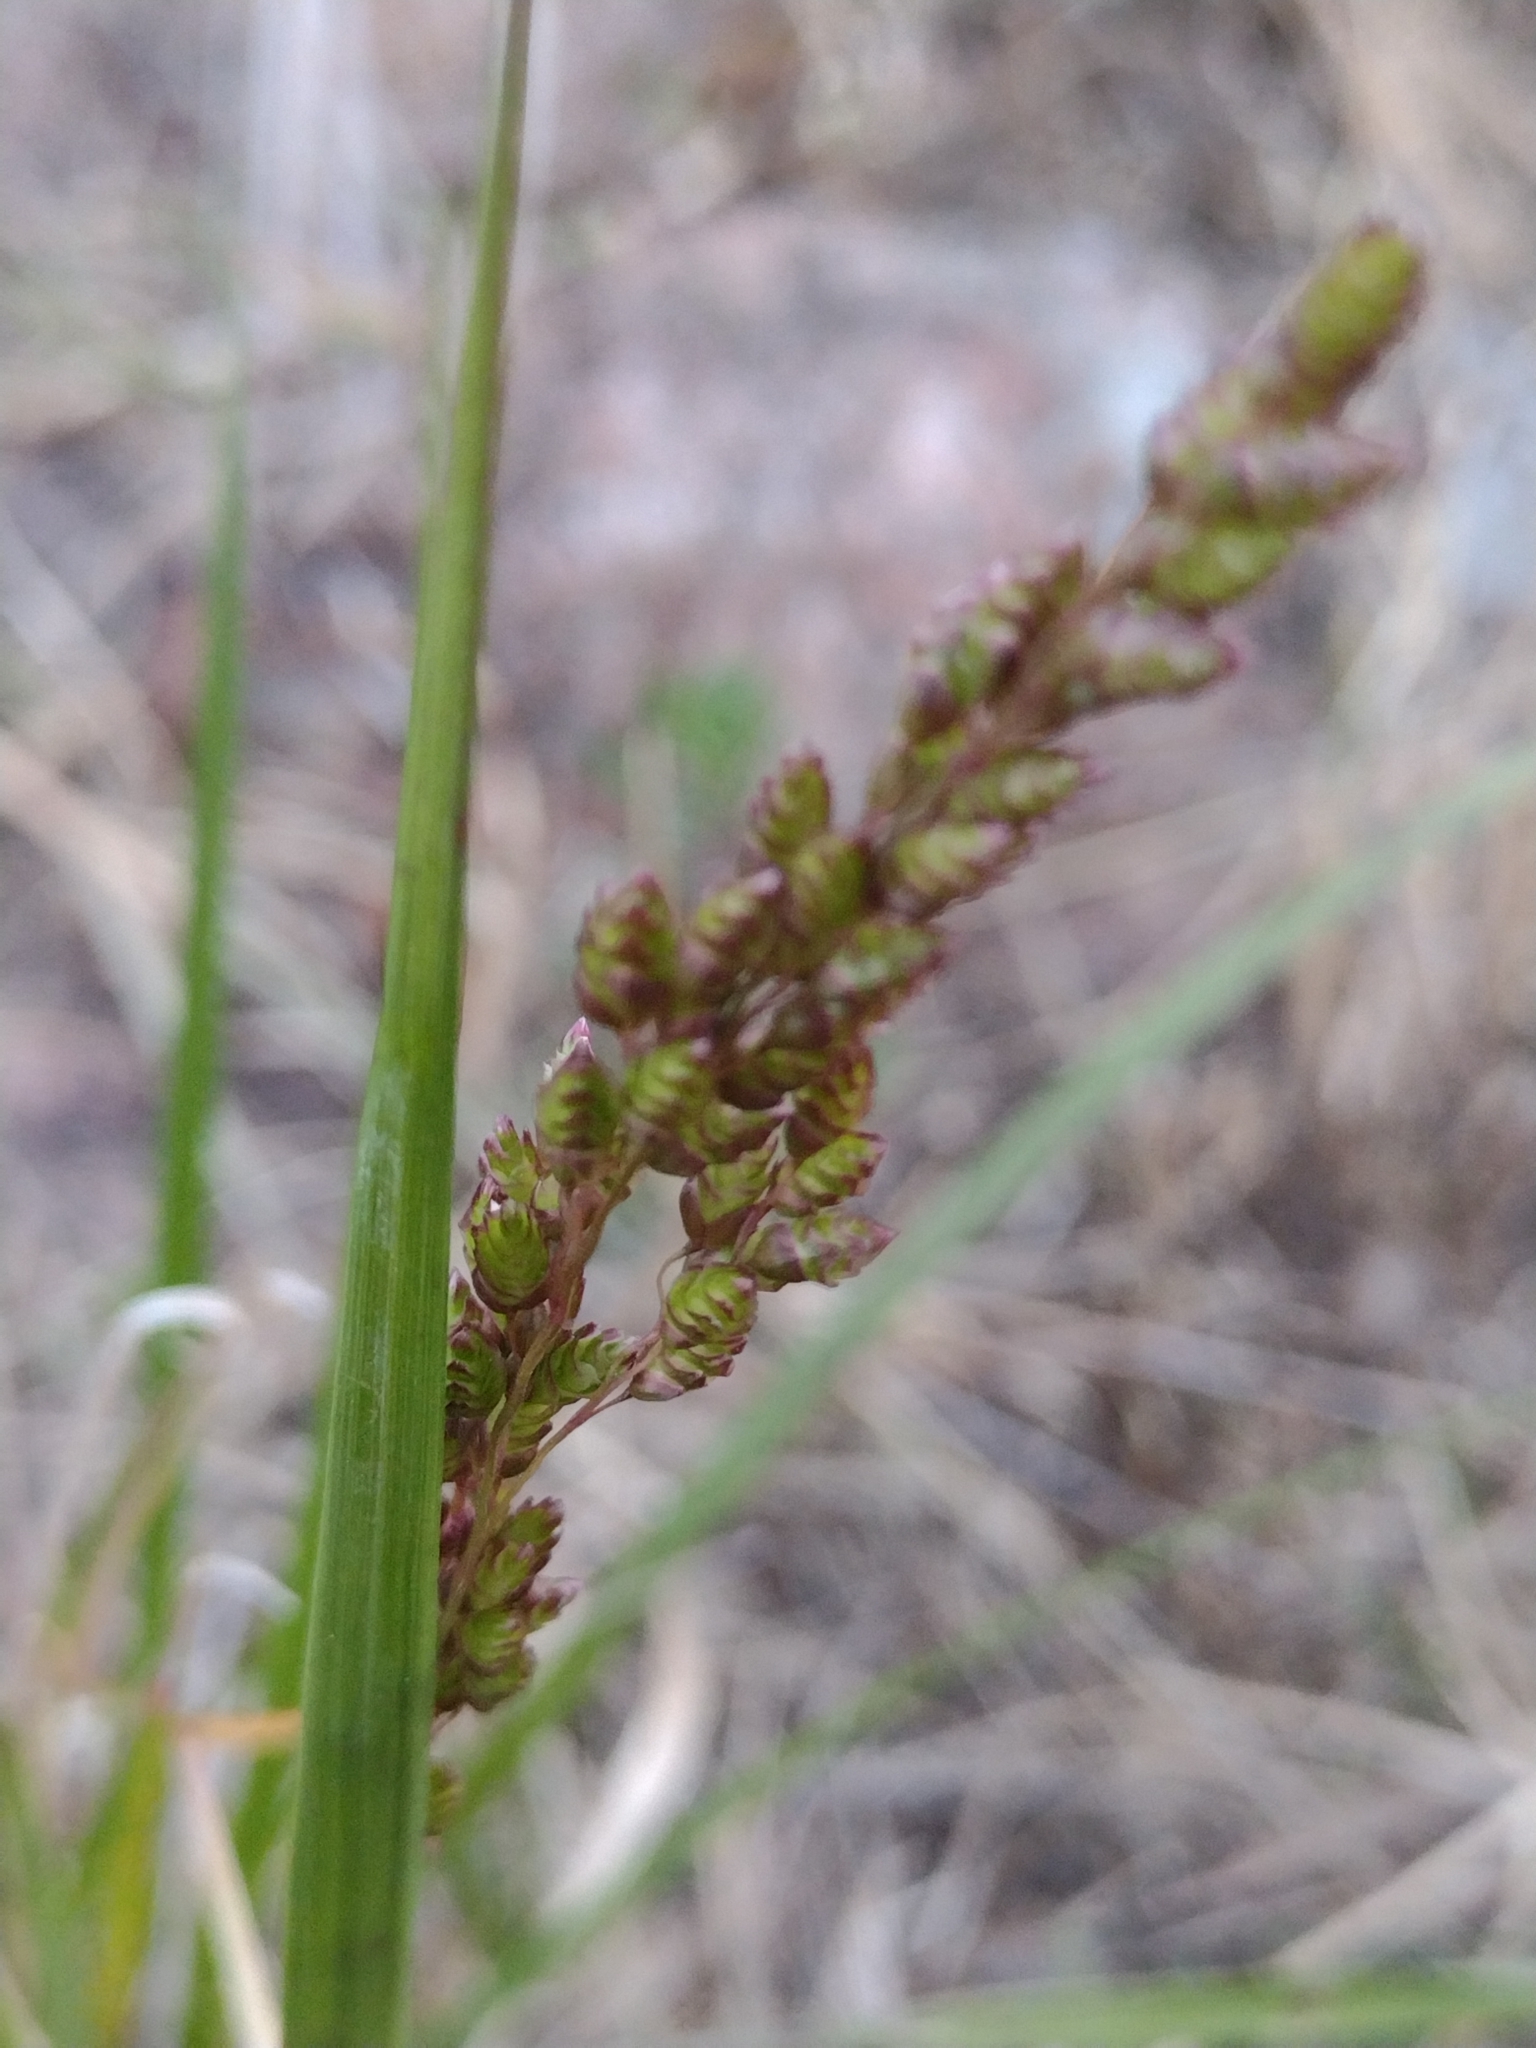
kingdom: Plantae
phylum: Tracheophyta
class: Liliopsida
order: Poales
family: Poaceae
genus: Chascolytrum
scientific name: Chascolytrum subaristatum
